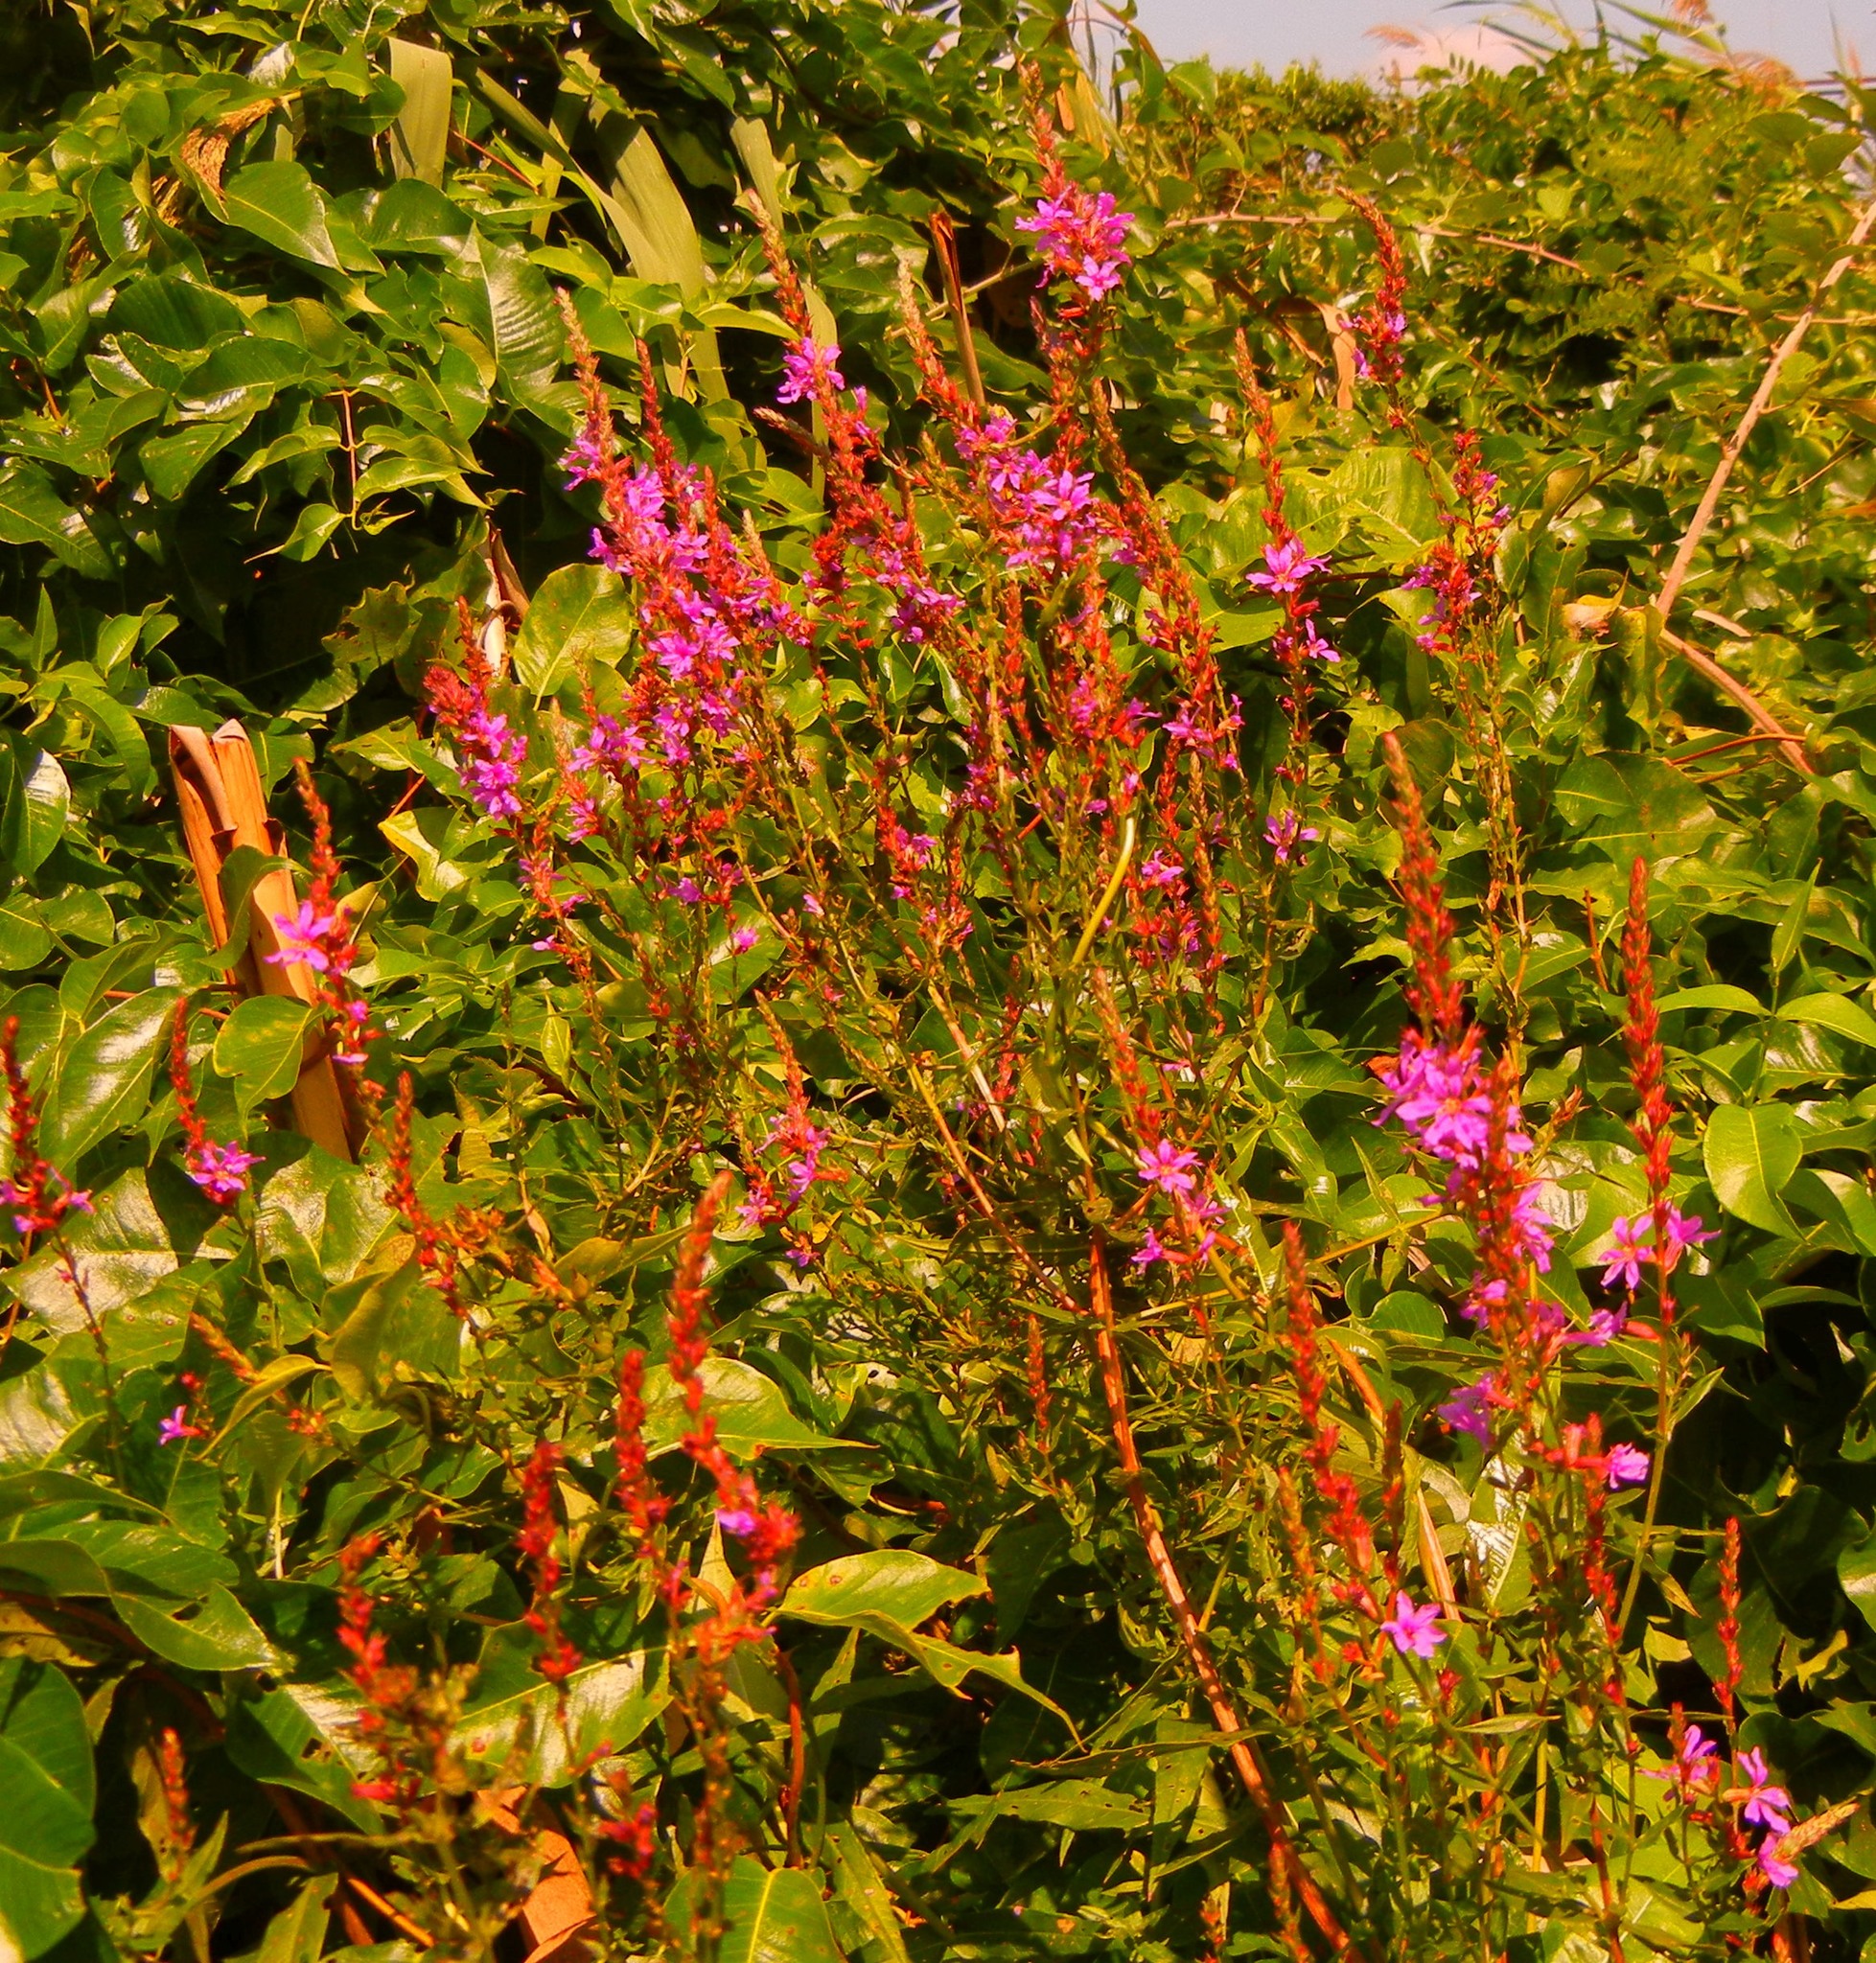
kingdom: Plantae
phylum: Tracheophyta
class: Magnoliopsida
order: Myrtales
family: Lythraceae
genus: Lythrum
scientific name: Lythrum salicaria
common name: Purple loosestrife
